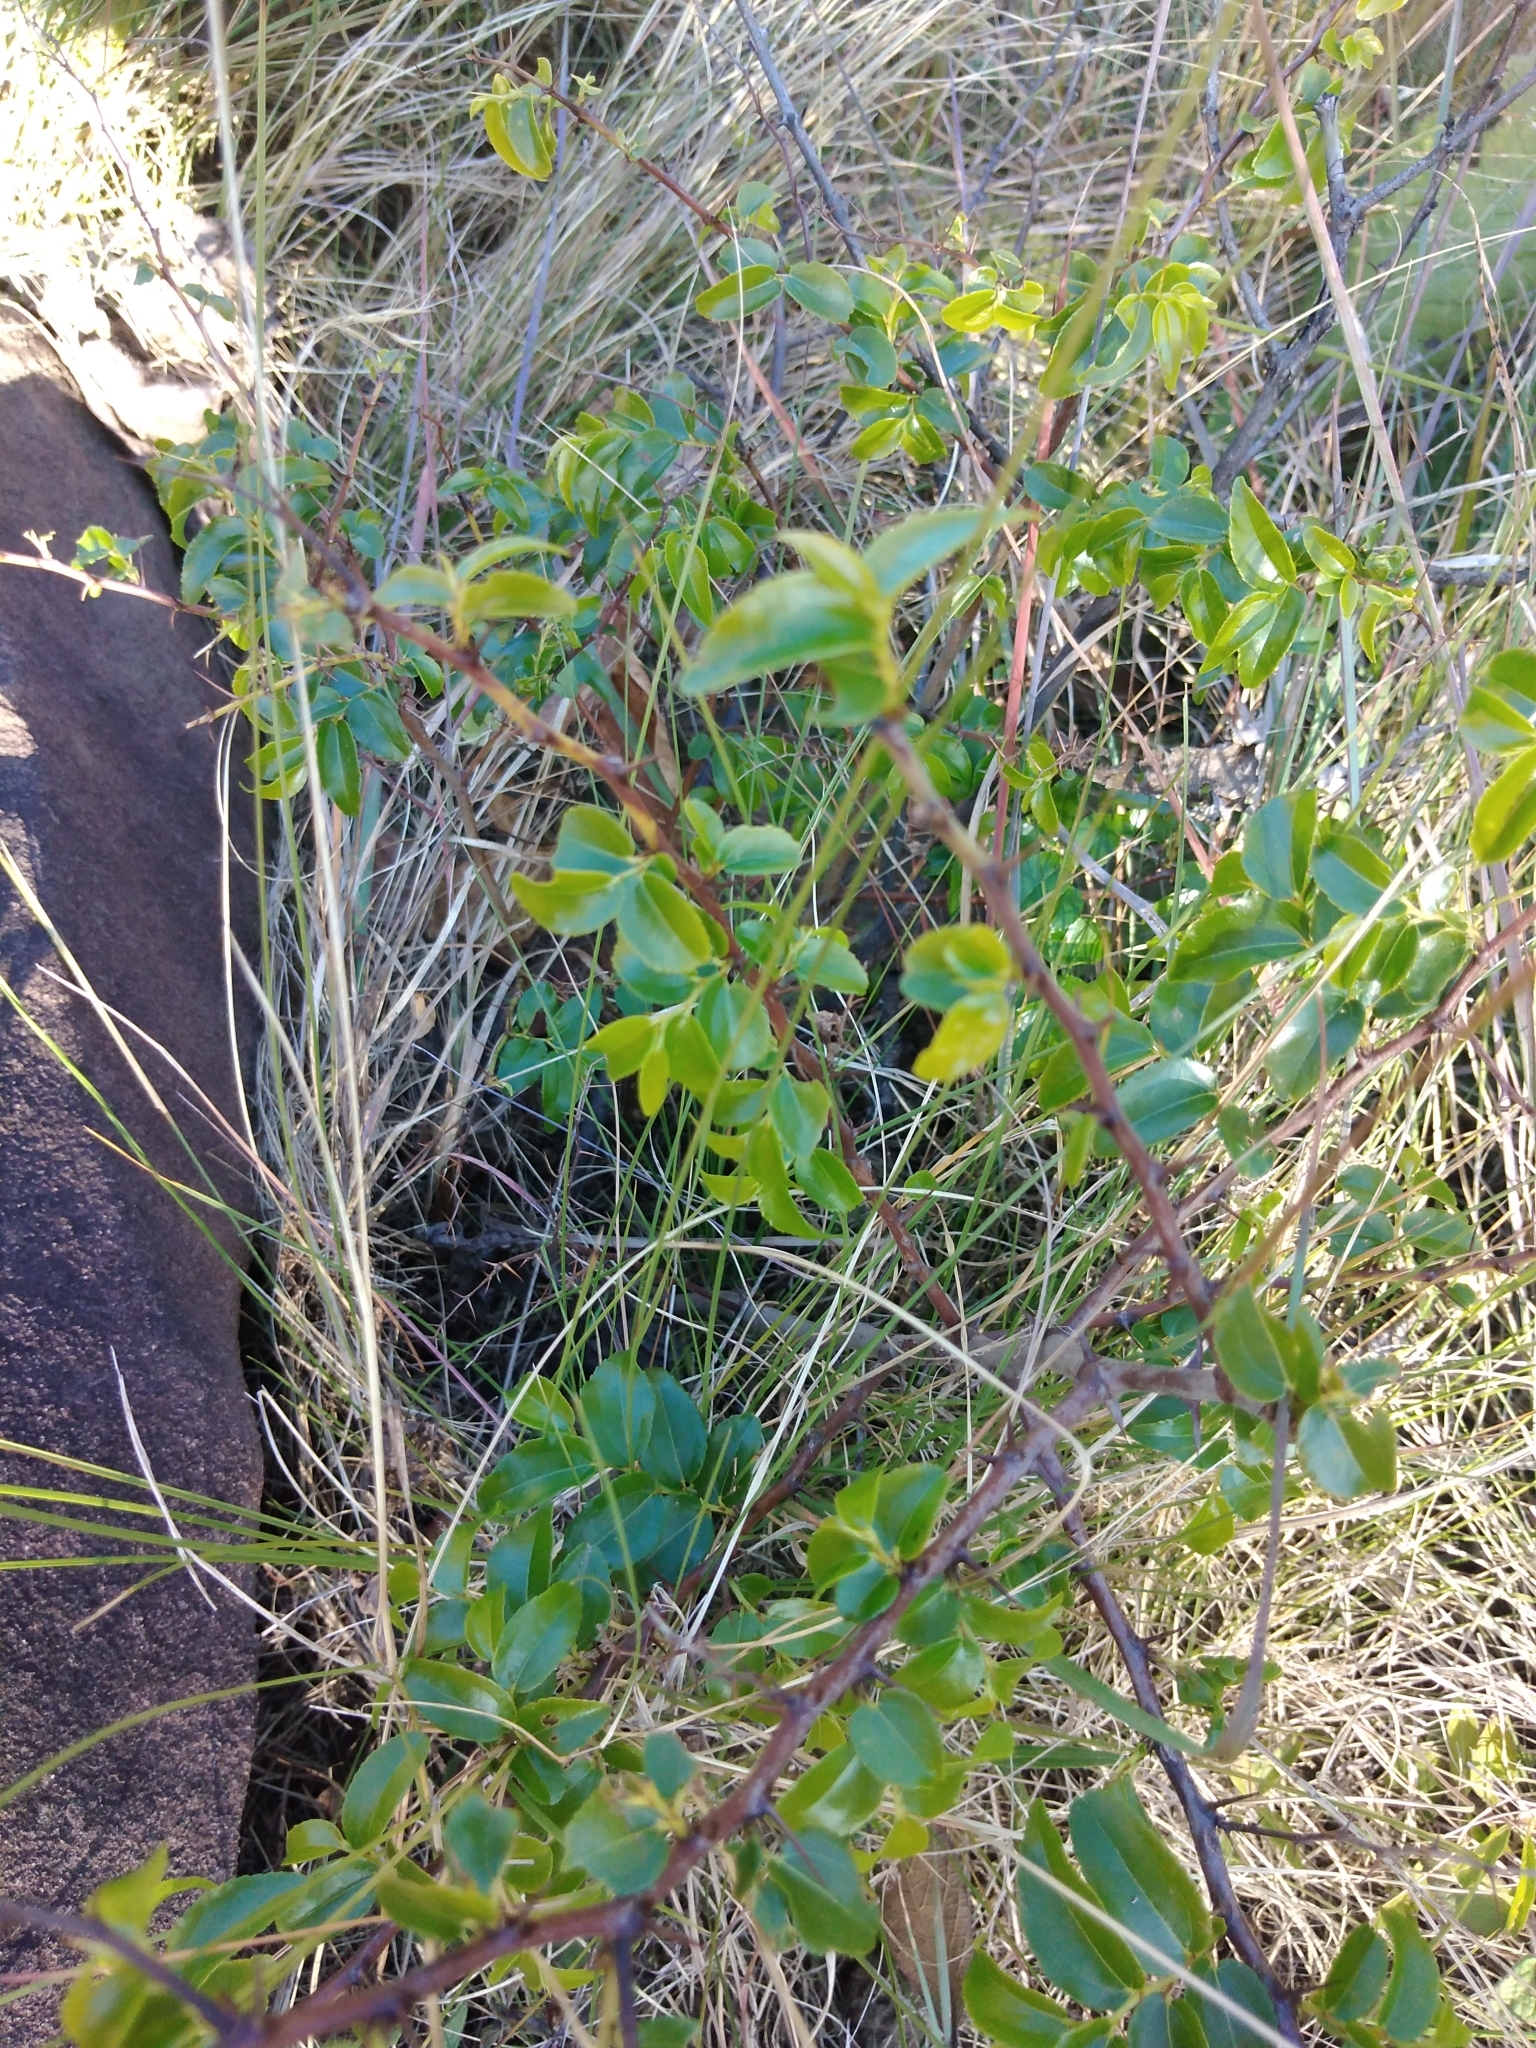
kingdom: Plantae
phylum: Tracheophyta
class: Magnoliopsida
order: Rosales
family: Rhamnaceae
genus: Ziziphus
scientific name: Ziziphus mucronata
